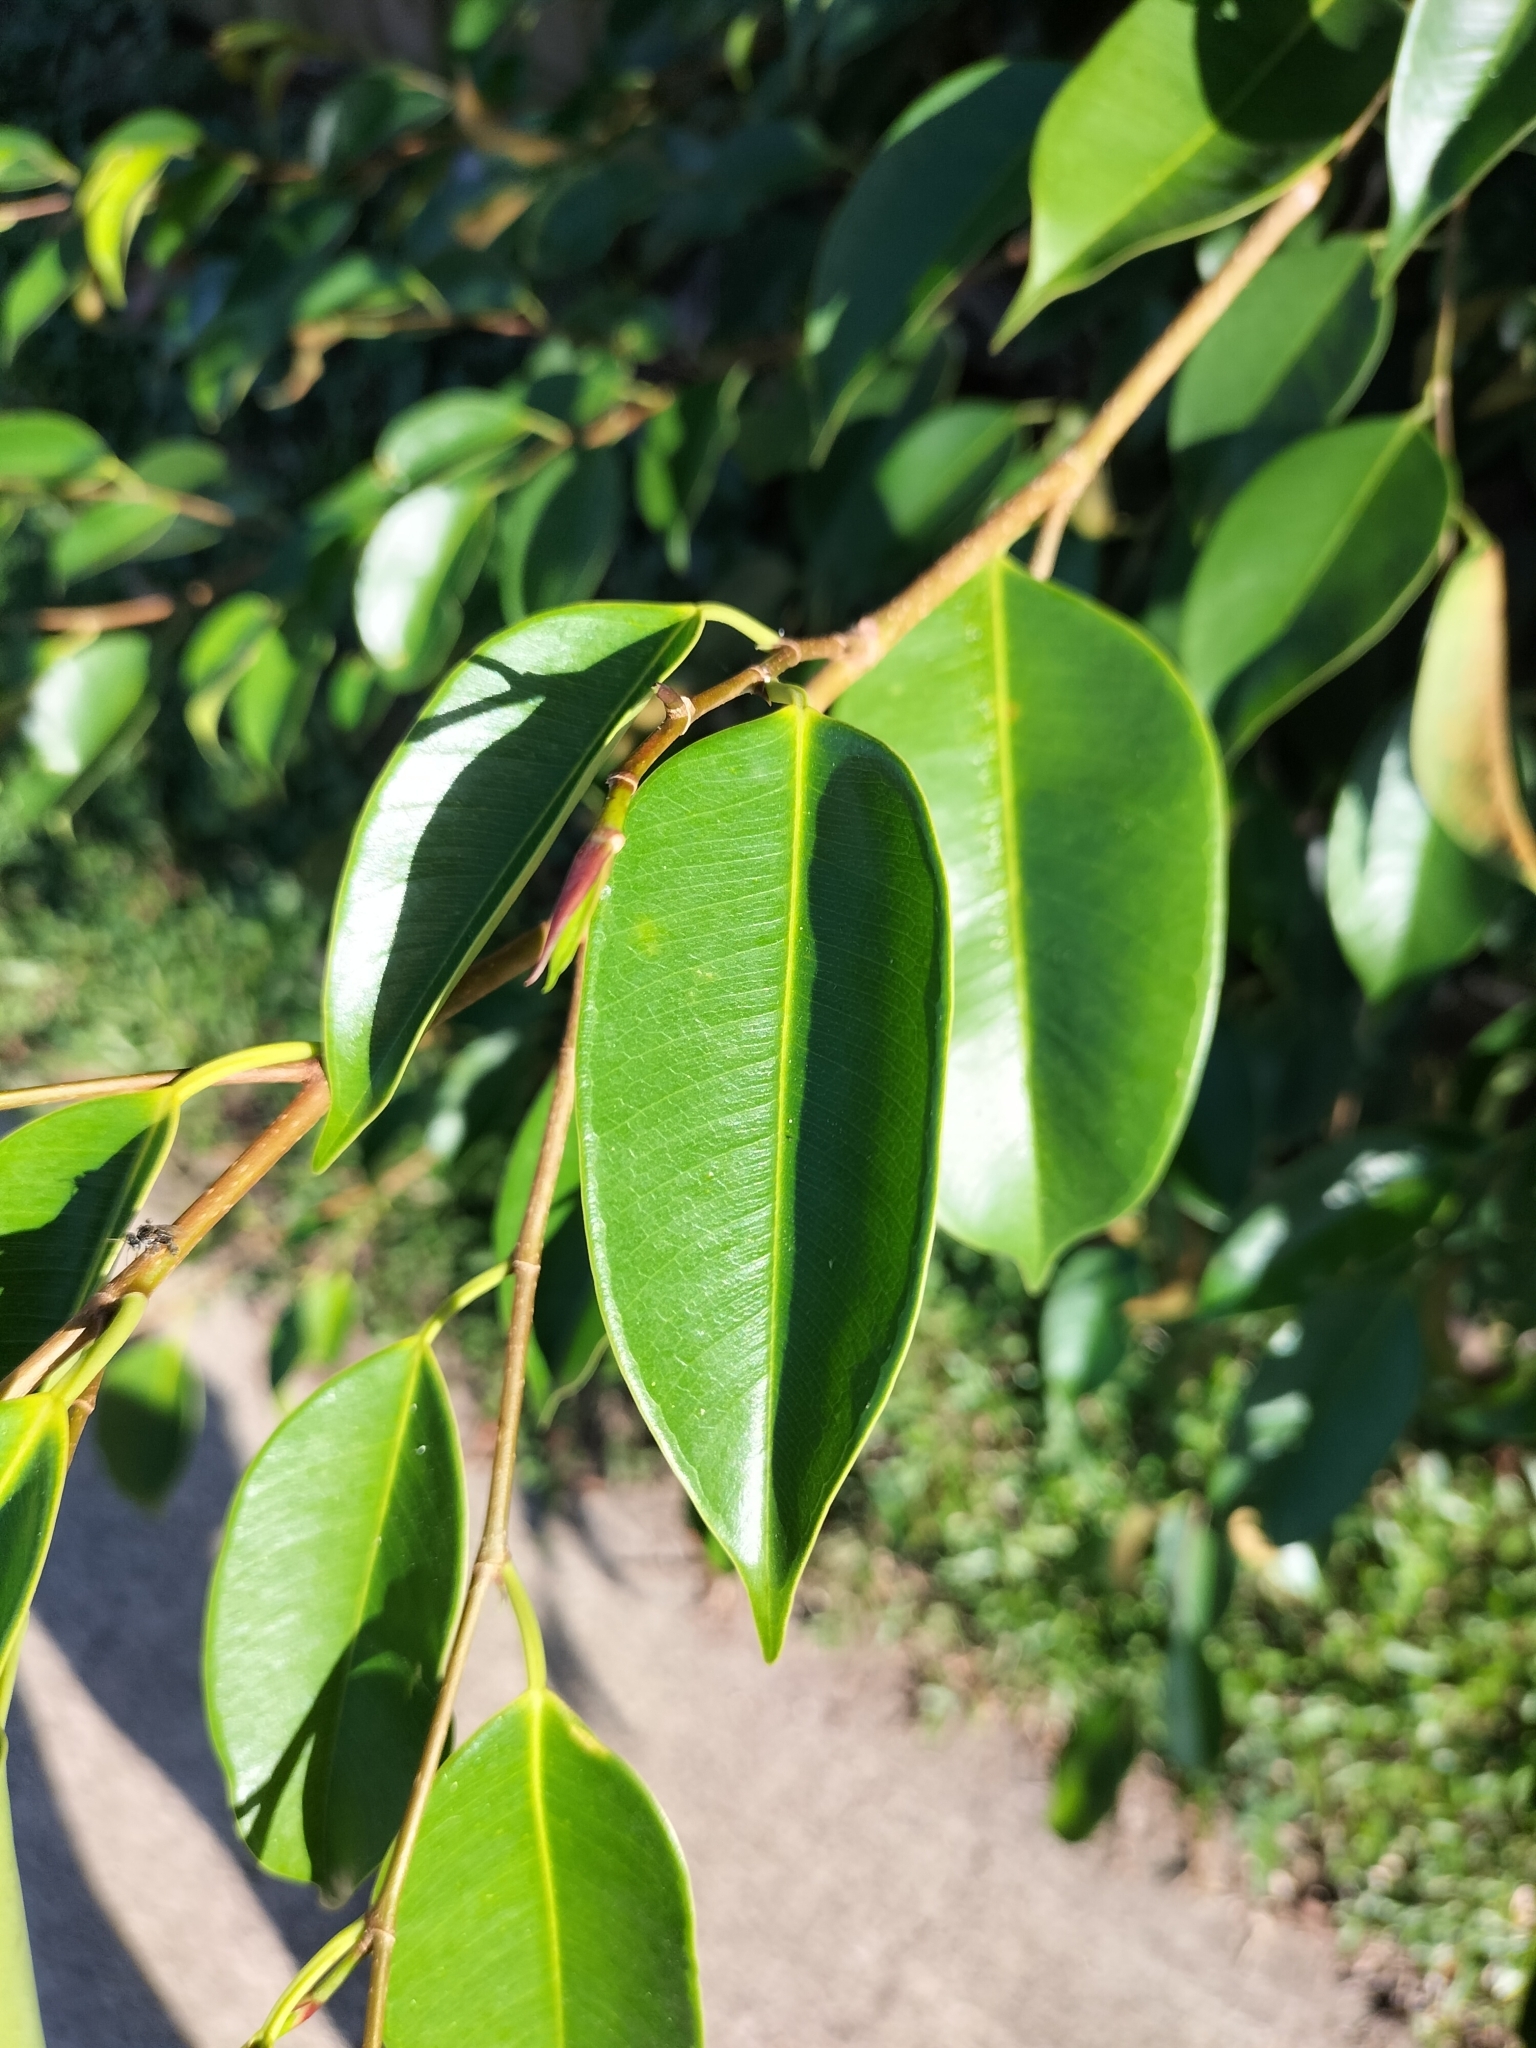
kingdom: Plantae
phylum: Tracheophyta
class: Magnoliopsida
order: Rosales
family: Moraceae
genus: Ficus
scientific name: Ficus benjamina
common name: Weeping fig
